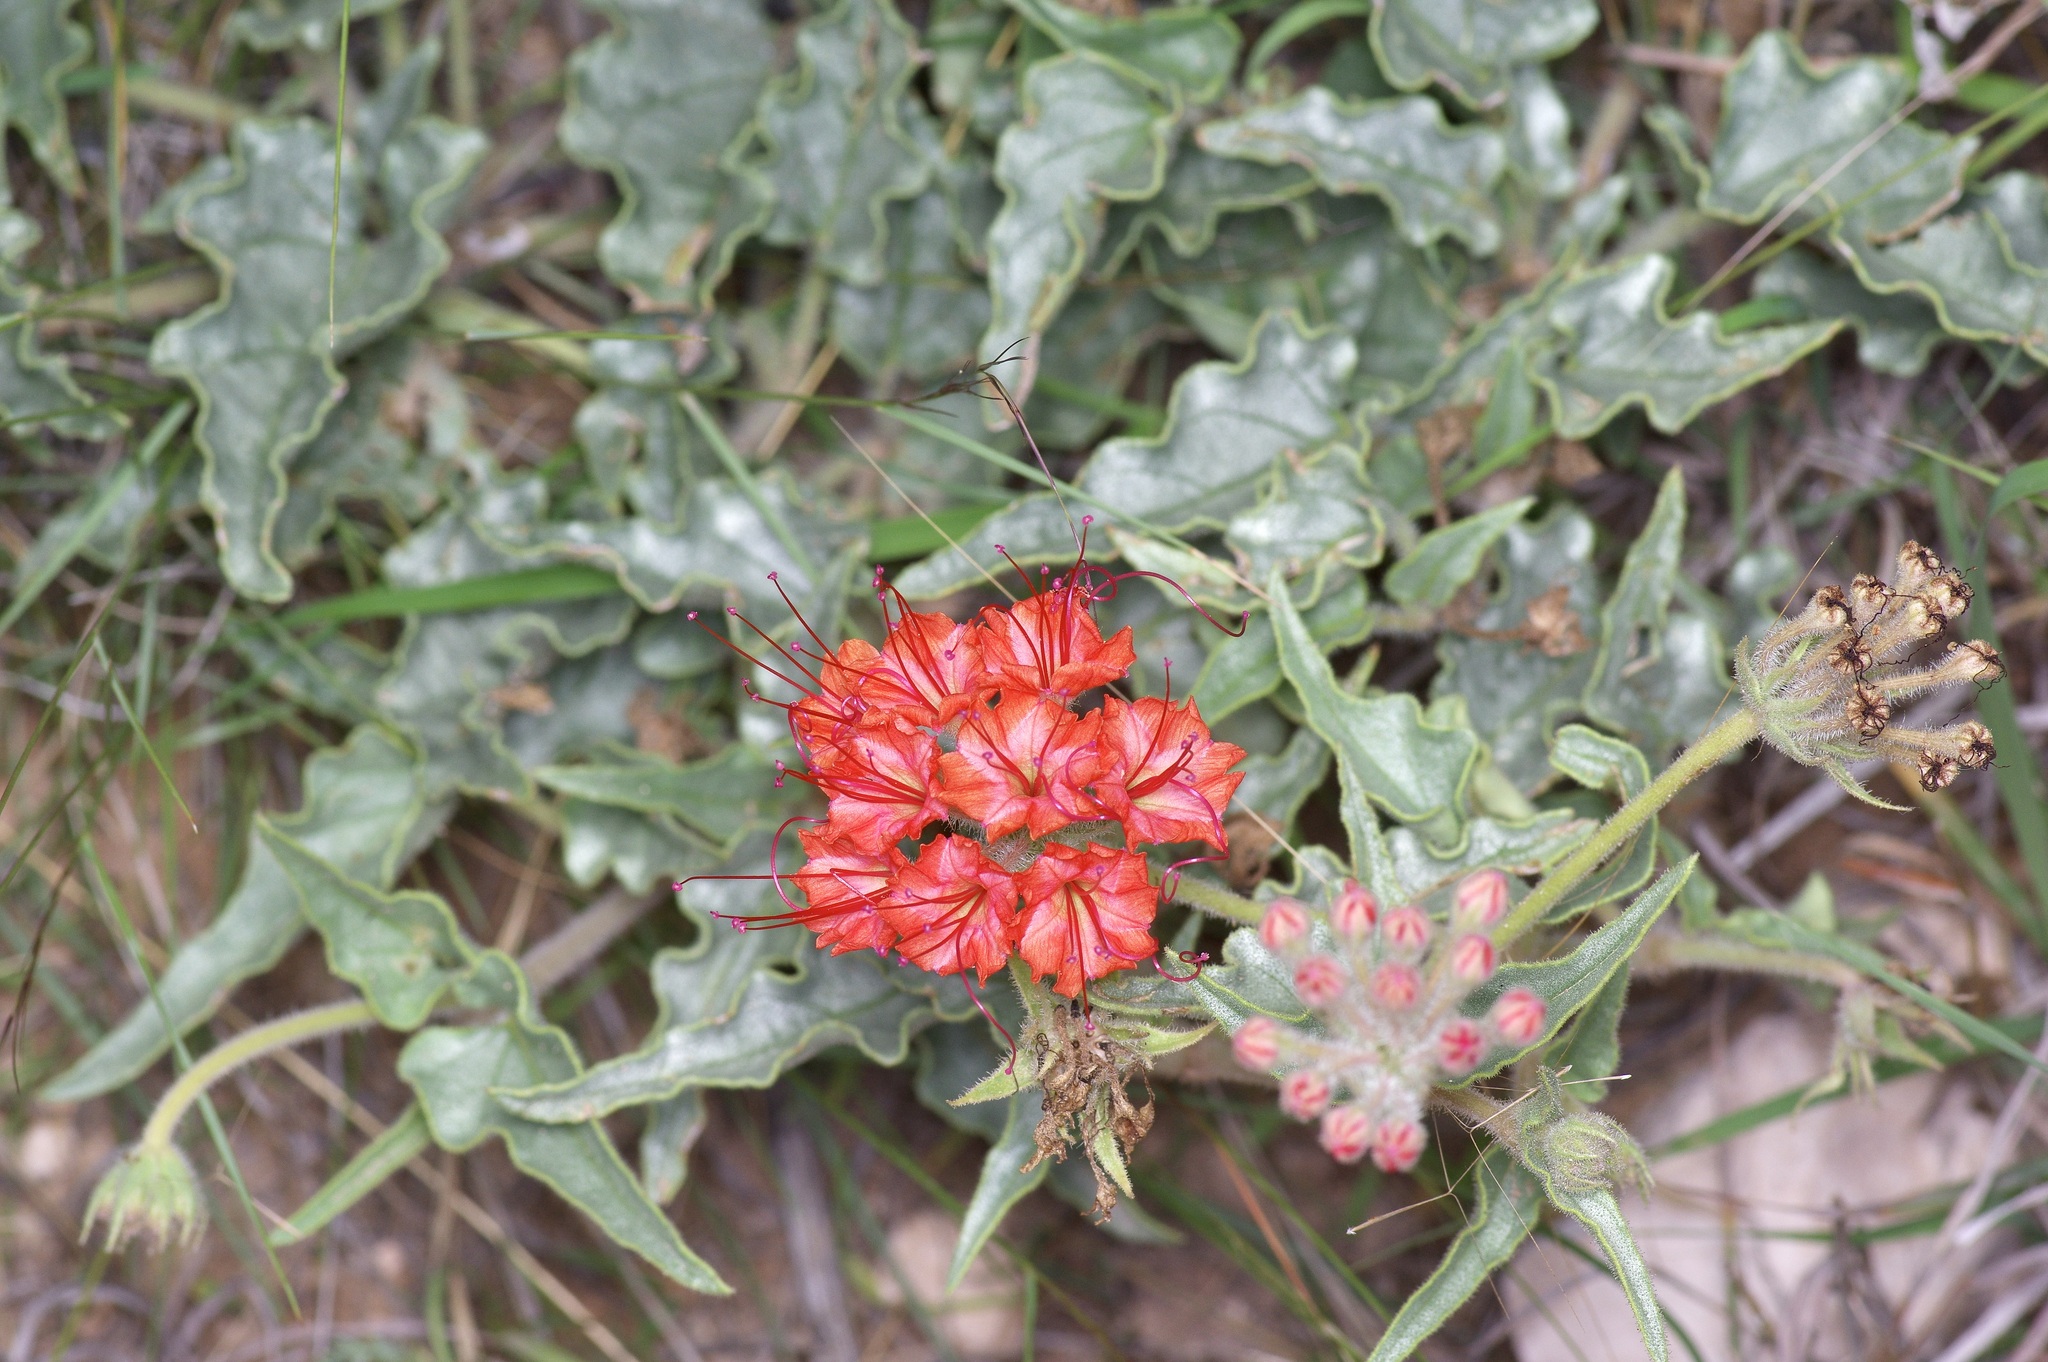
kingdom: Plantae
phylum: Tracheophyta
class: Magnoliopsida
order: Caryophyllales
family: Nyctaginaceae
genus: Nyctaginia
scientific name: Nyctaginia capitata
